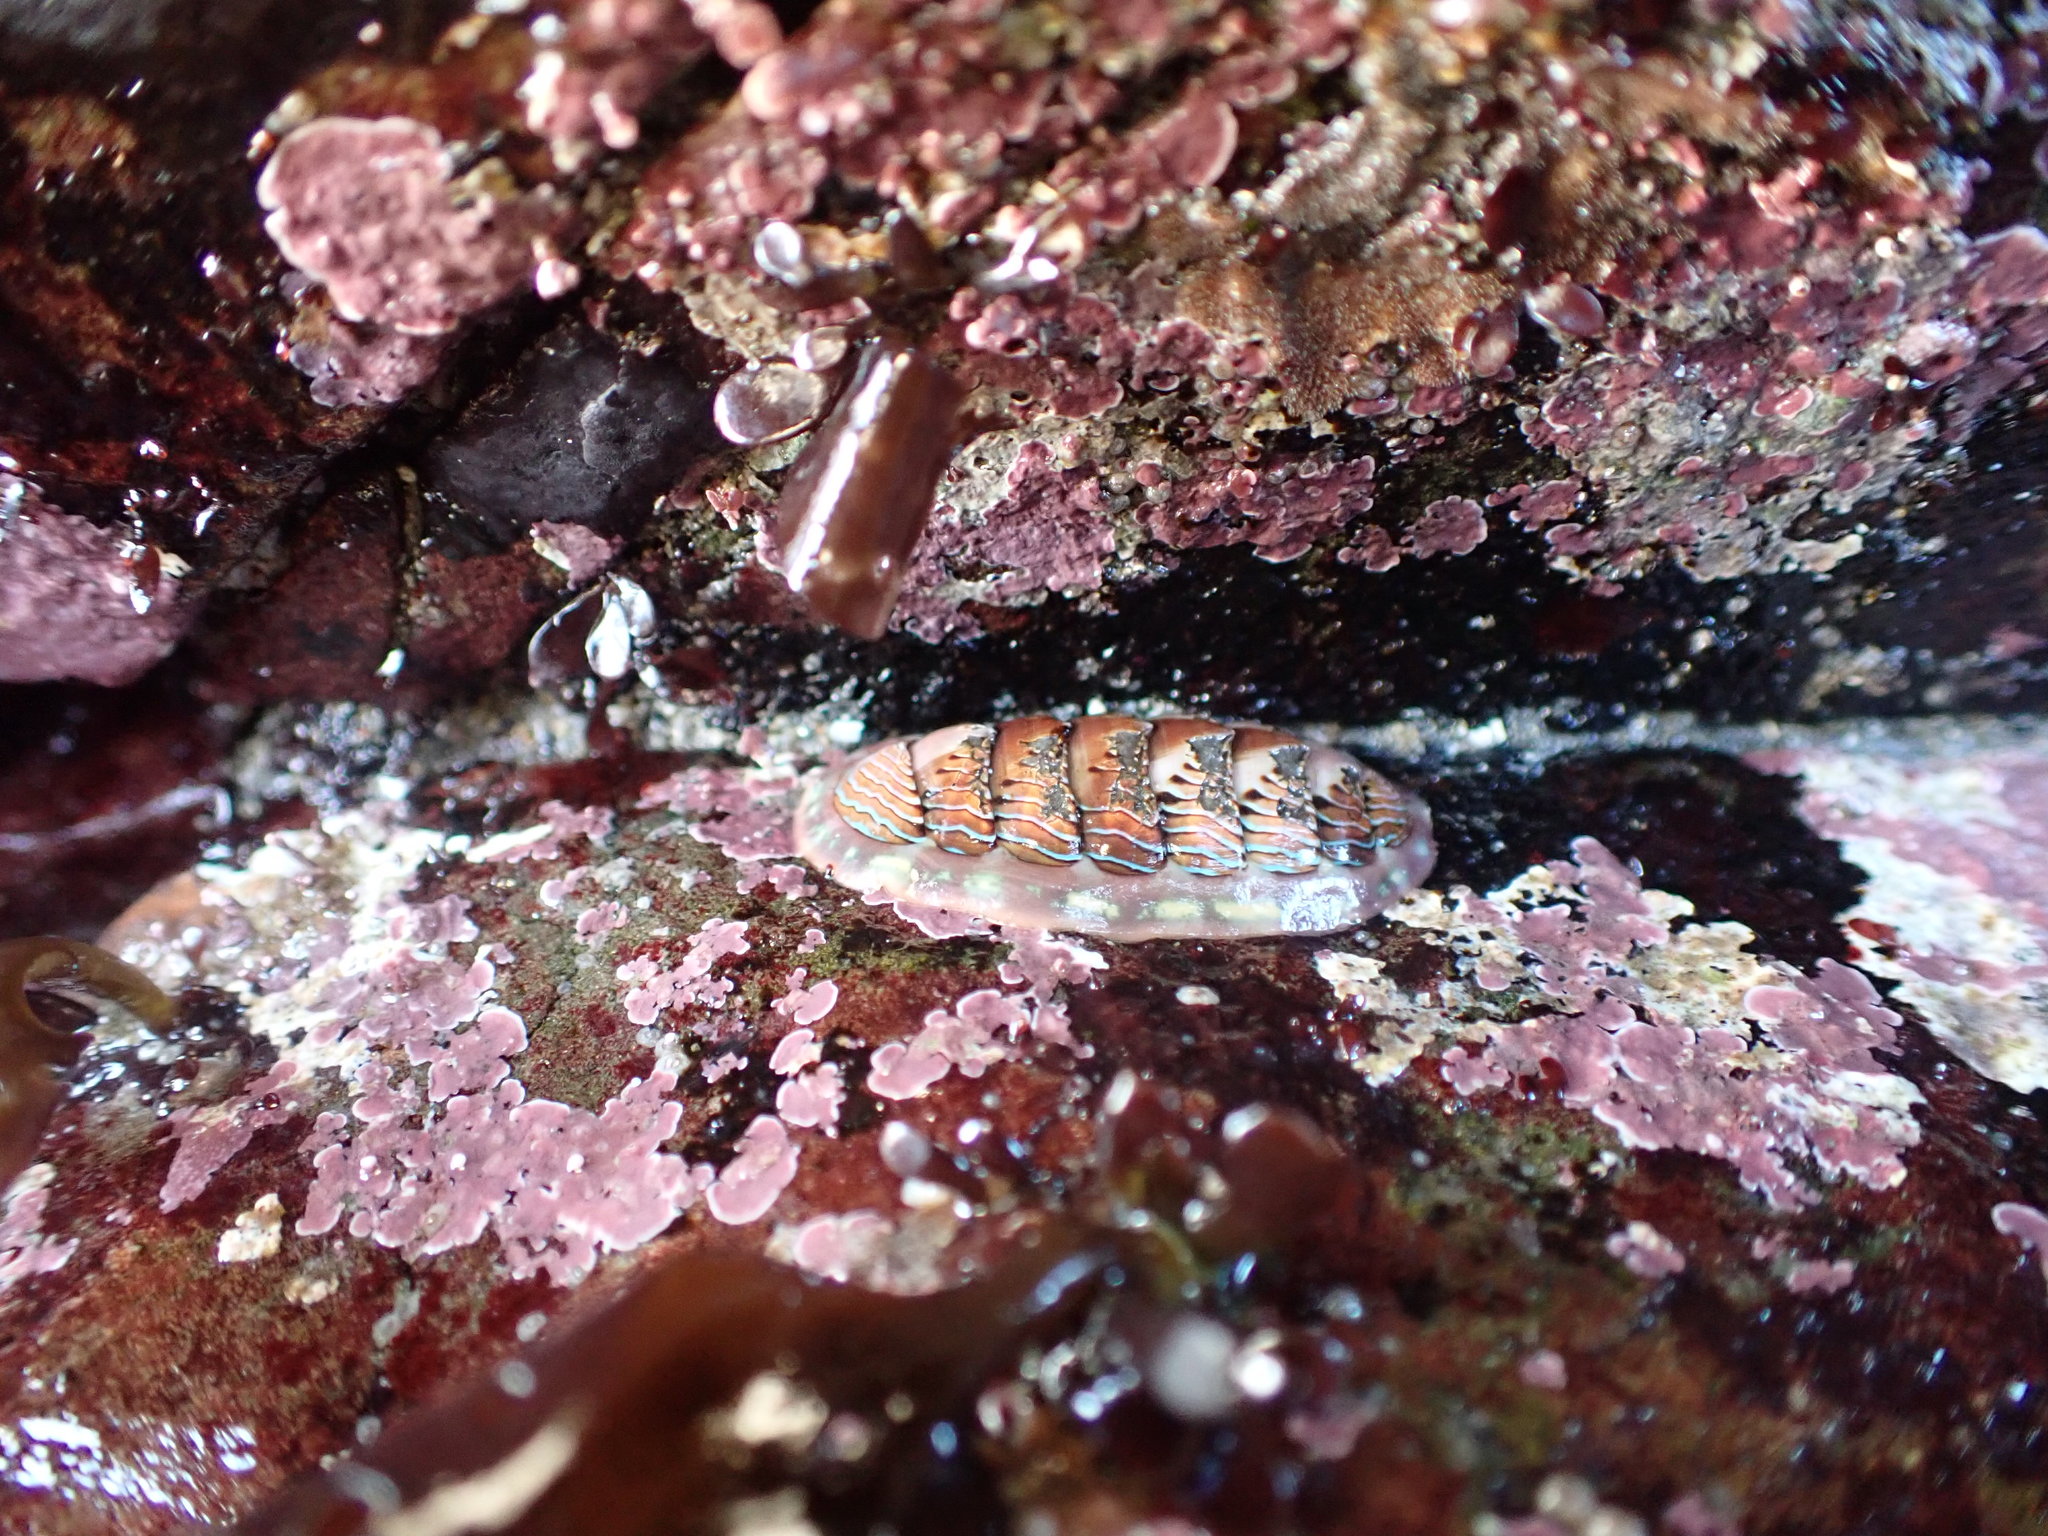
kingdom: Animalia
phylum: Mollusca
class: Polyplacophora
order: Chitonida
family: Tonicellidae
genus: Tonicella
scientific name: Tonicella lineata
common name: Lined chiton
